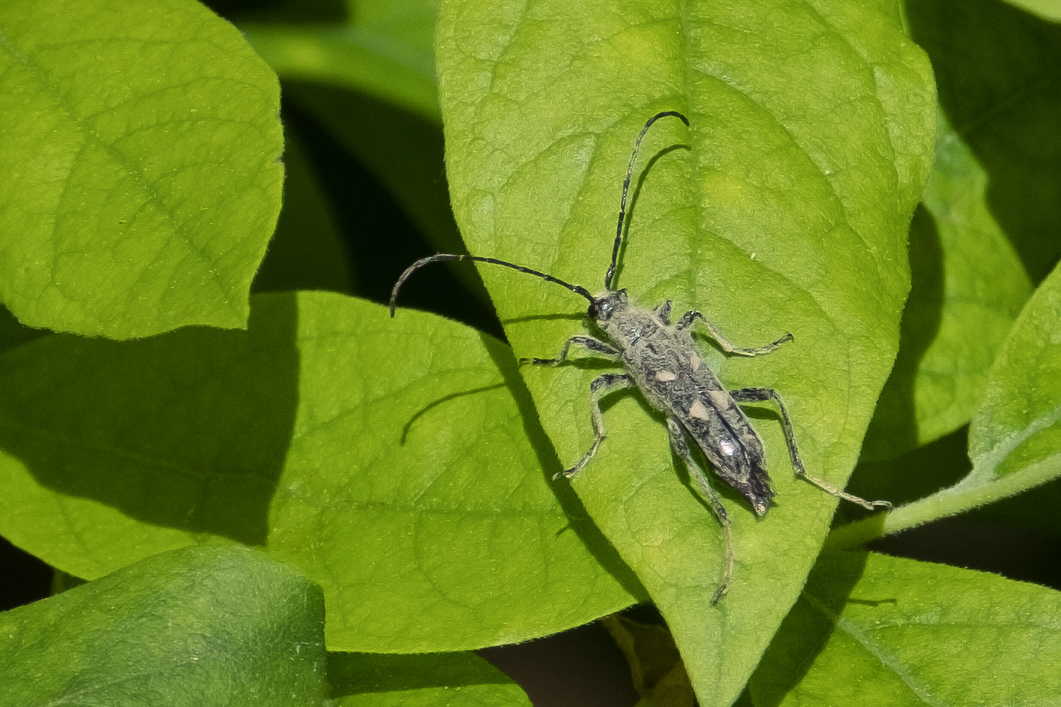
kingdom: Animalia
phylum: Arthropoda
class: Insecta
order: Coleoptera
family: Cerambycidae
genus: Xestoleptura
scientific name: Xestoleptura octonotata
